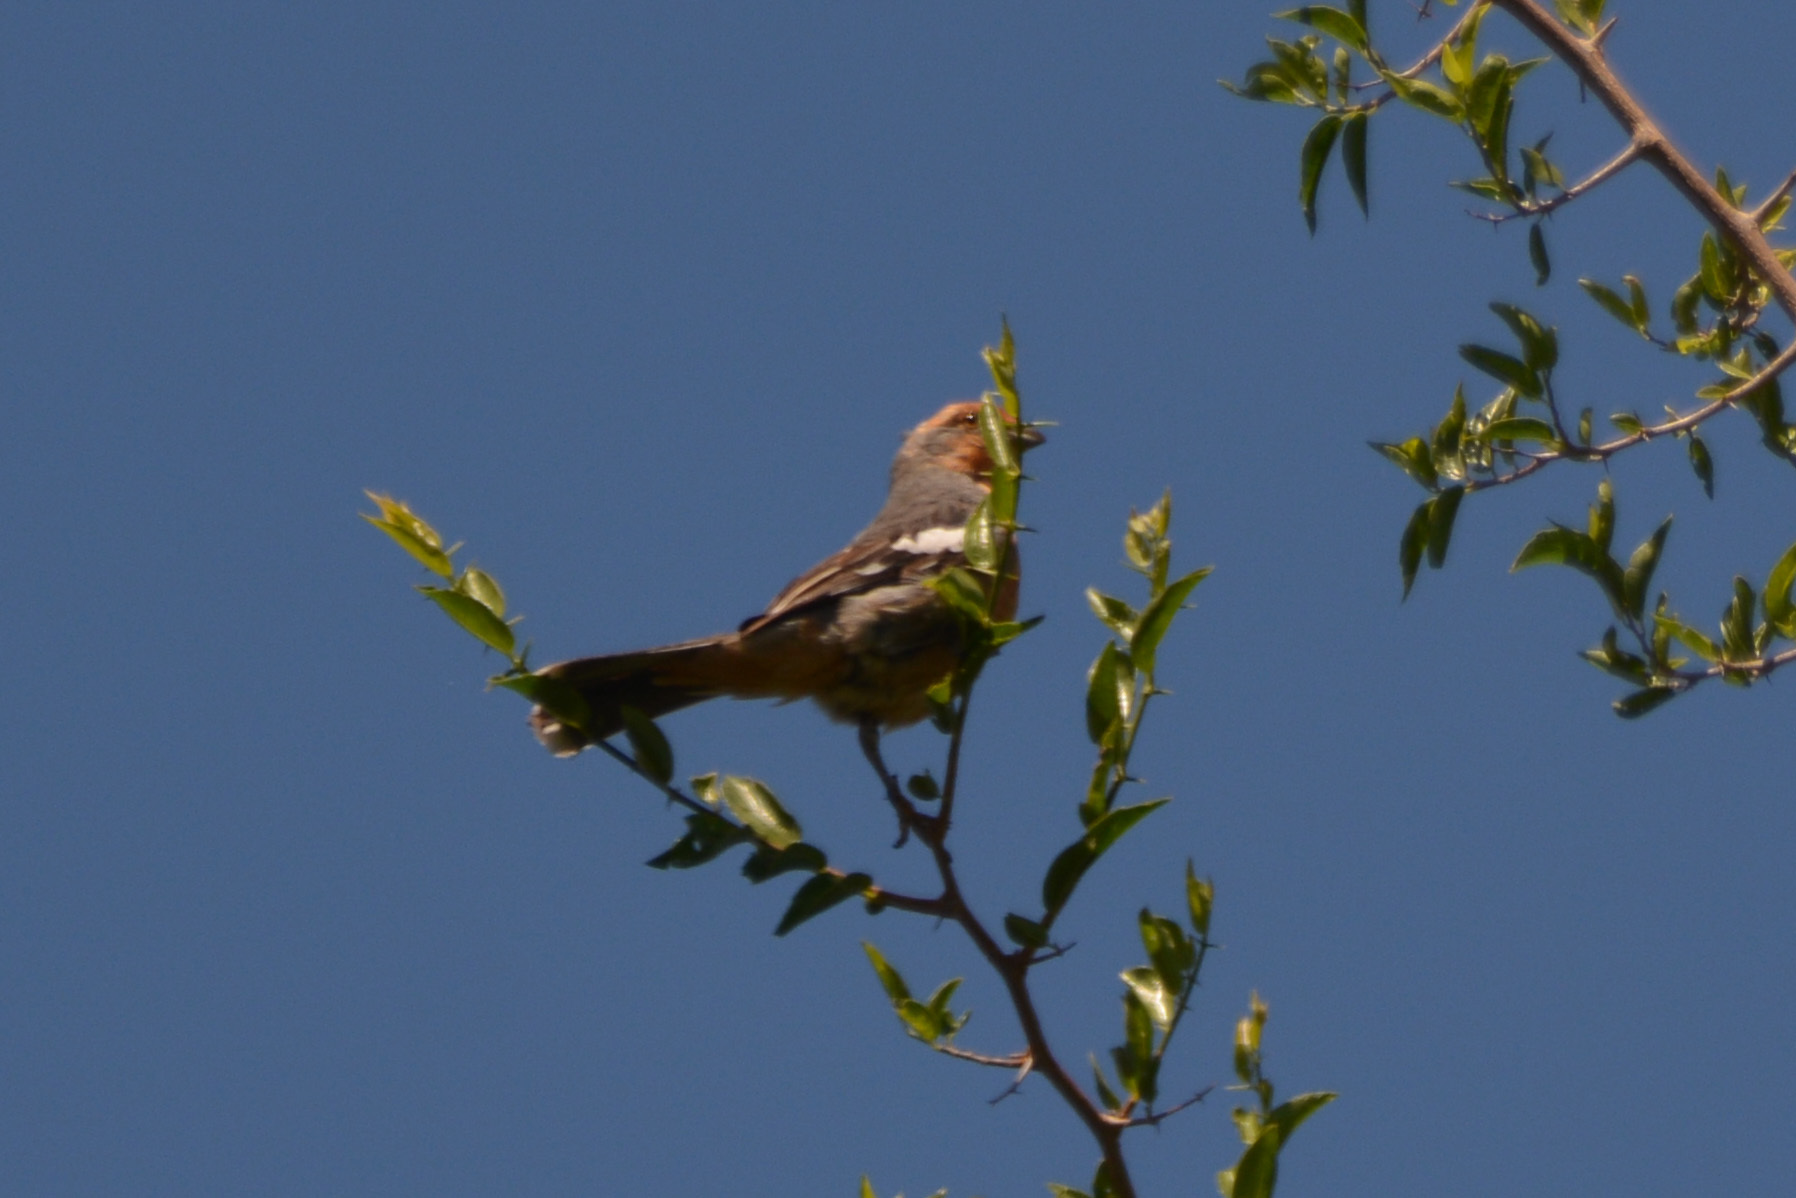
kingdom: Animalia
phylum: Chordata
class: Aves
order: Passeriformes
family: Cotingidae
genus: Phytotoma
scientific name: Phytotoma rutila
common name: White-tipped plantcutter
